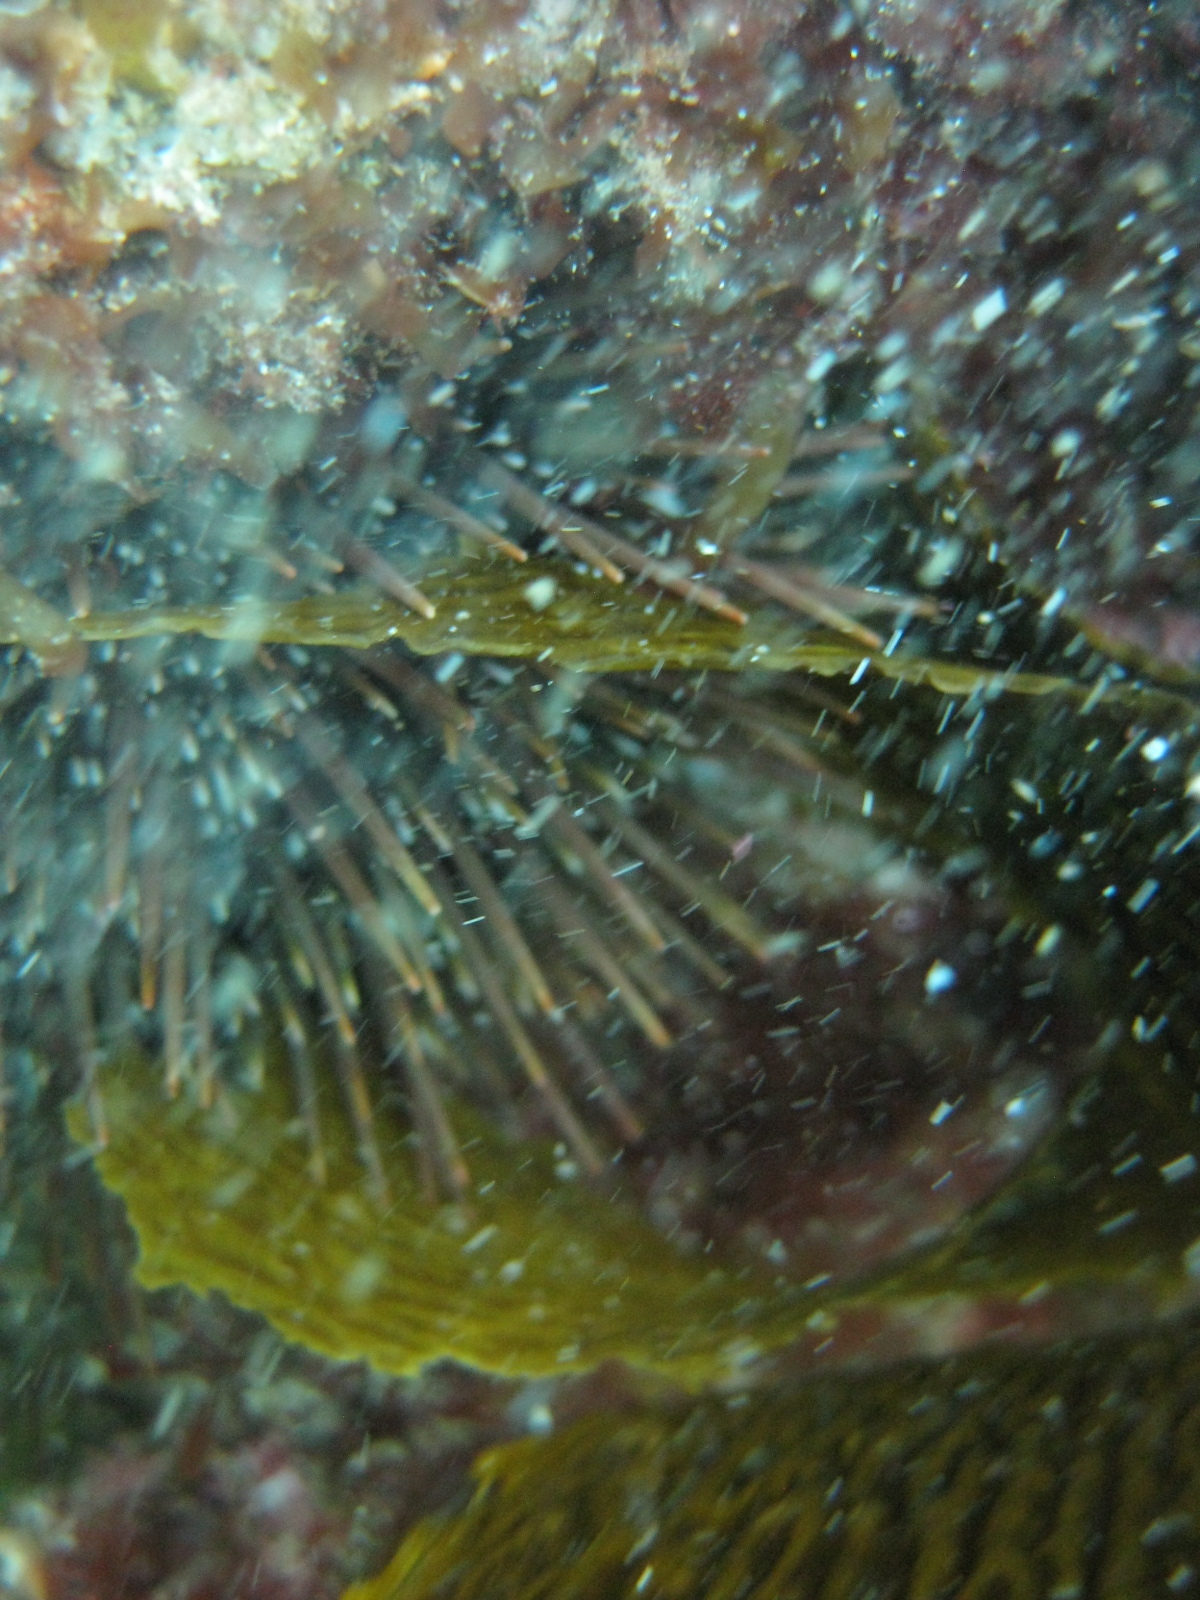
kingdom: Animalia
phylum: Echinodermata
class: Echinoidea
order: Camarodonta
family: Echinometridae
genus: Evechinus
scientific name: Evechinus chloroticus
